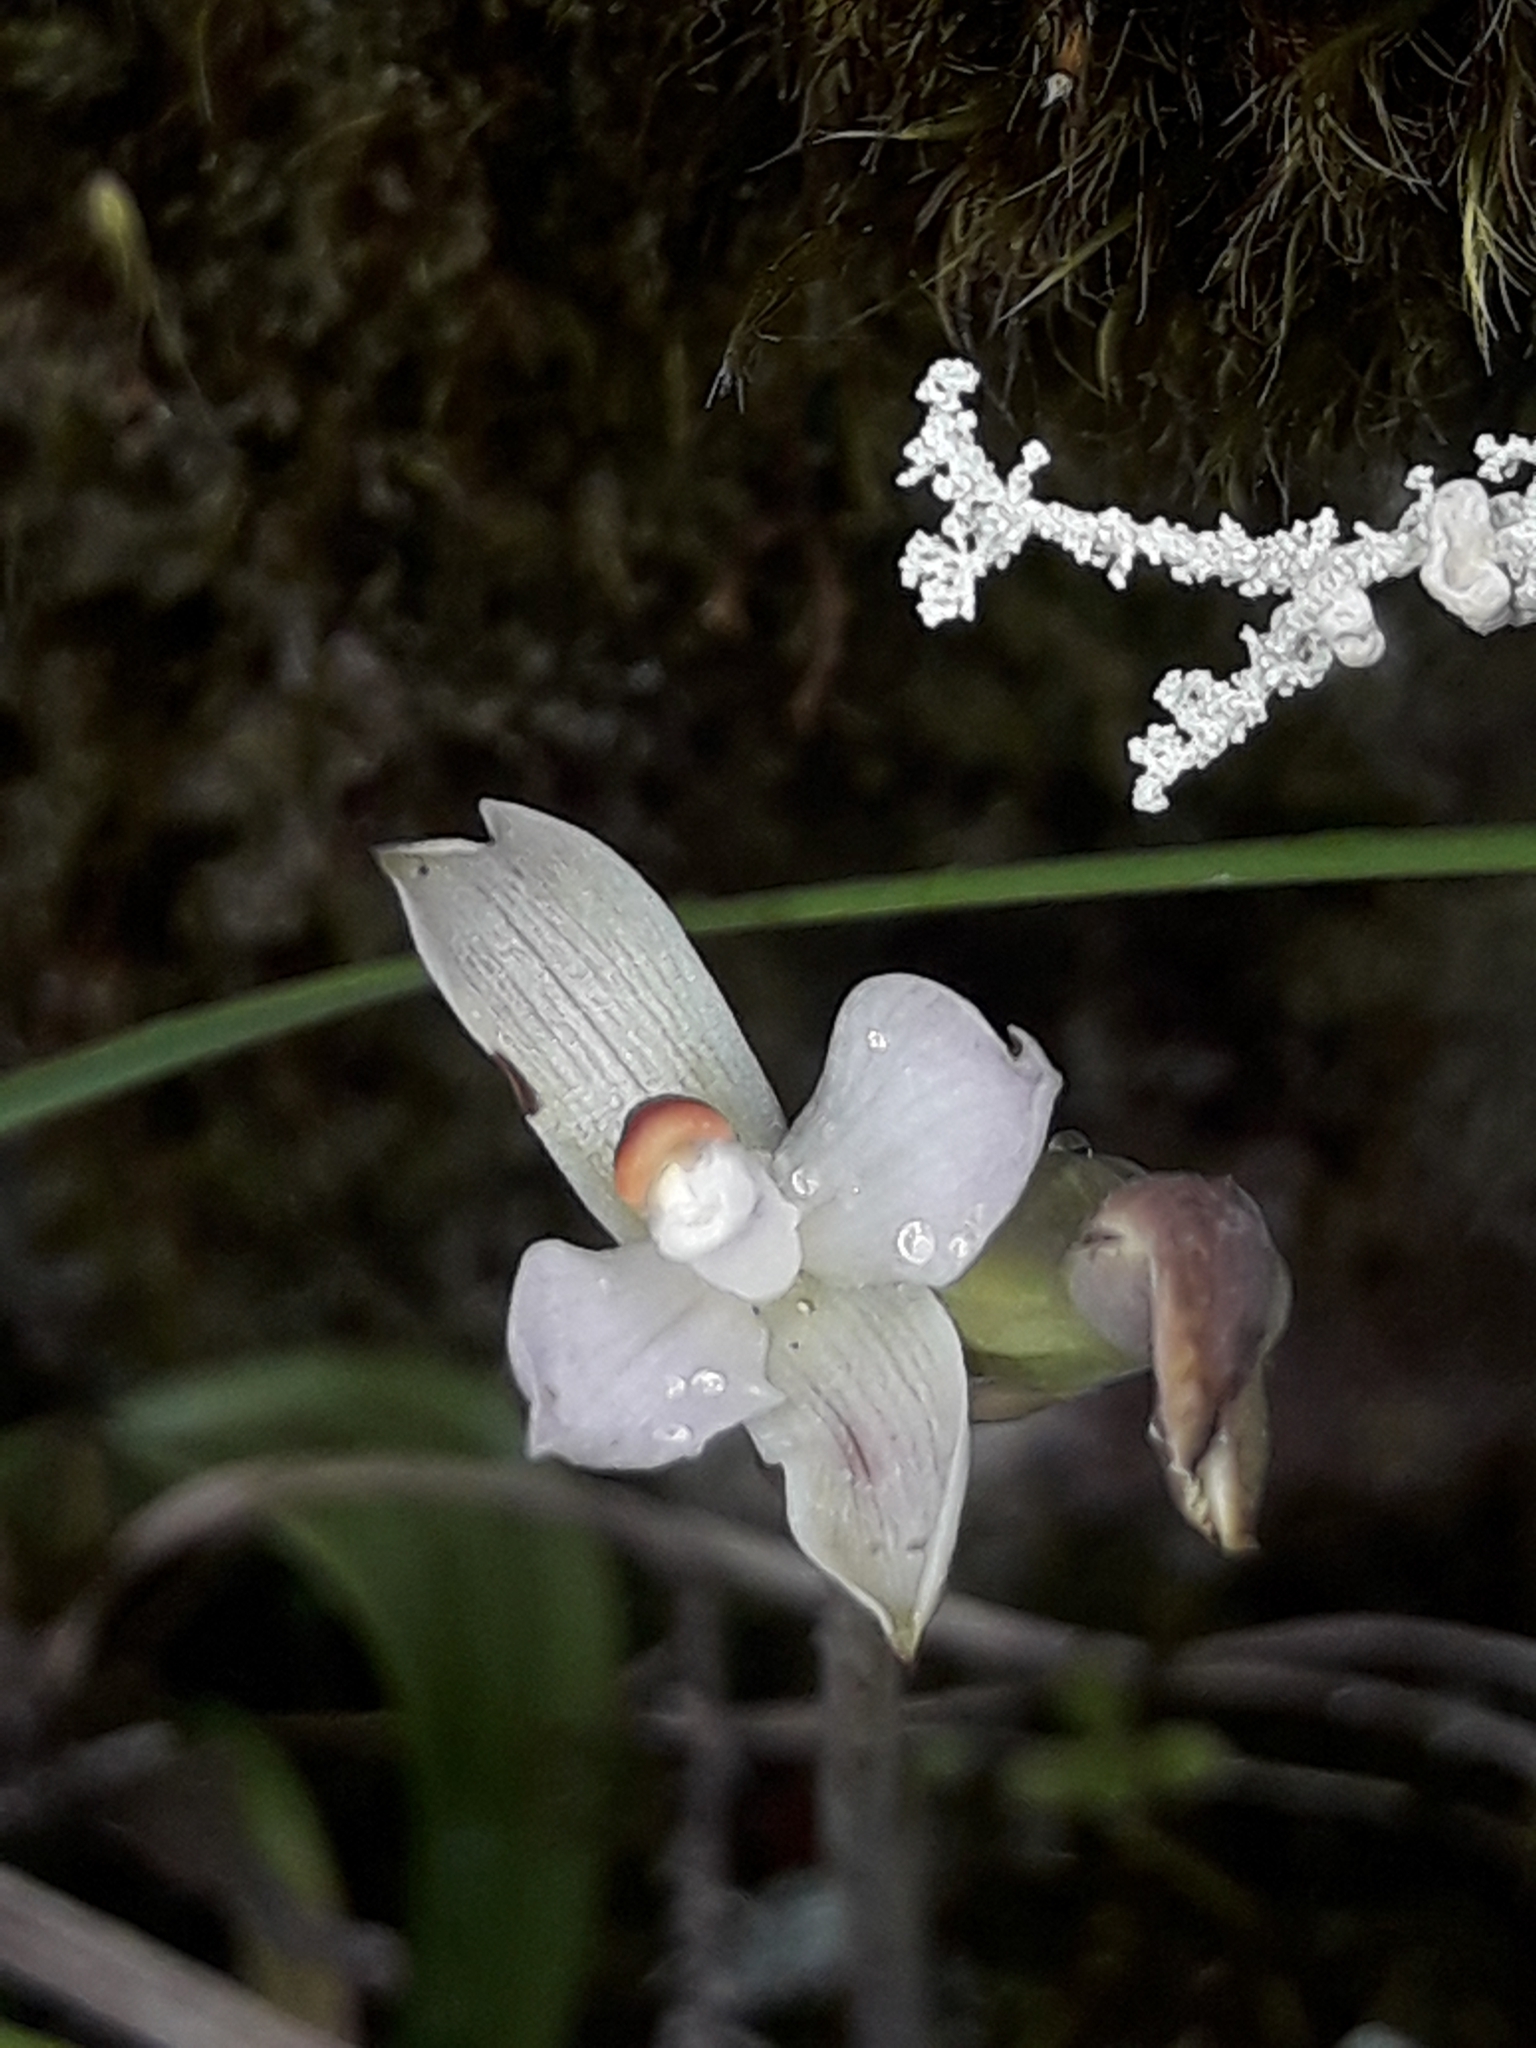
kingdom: Plantae
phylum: Tracheophyta
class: Liliopsida
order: Asparagales
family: Orchidaceae
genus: Thelymitra
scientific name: Thelymitra longifolia
